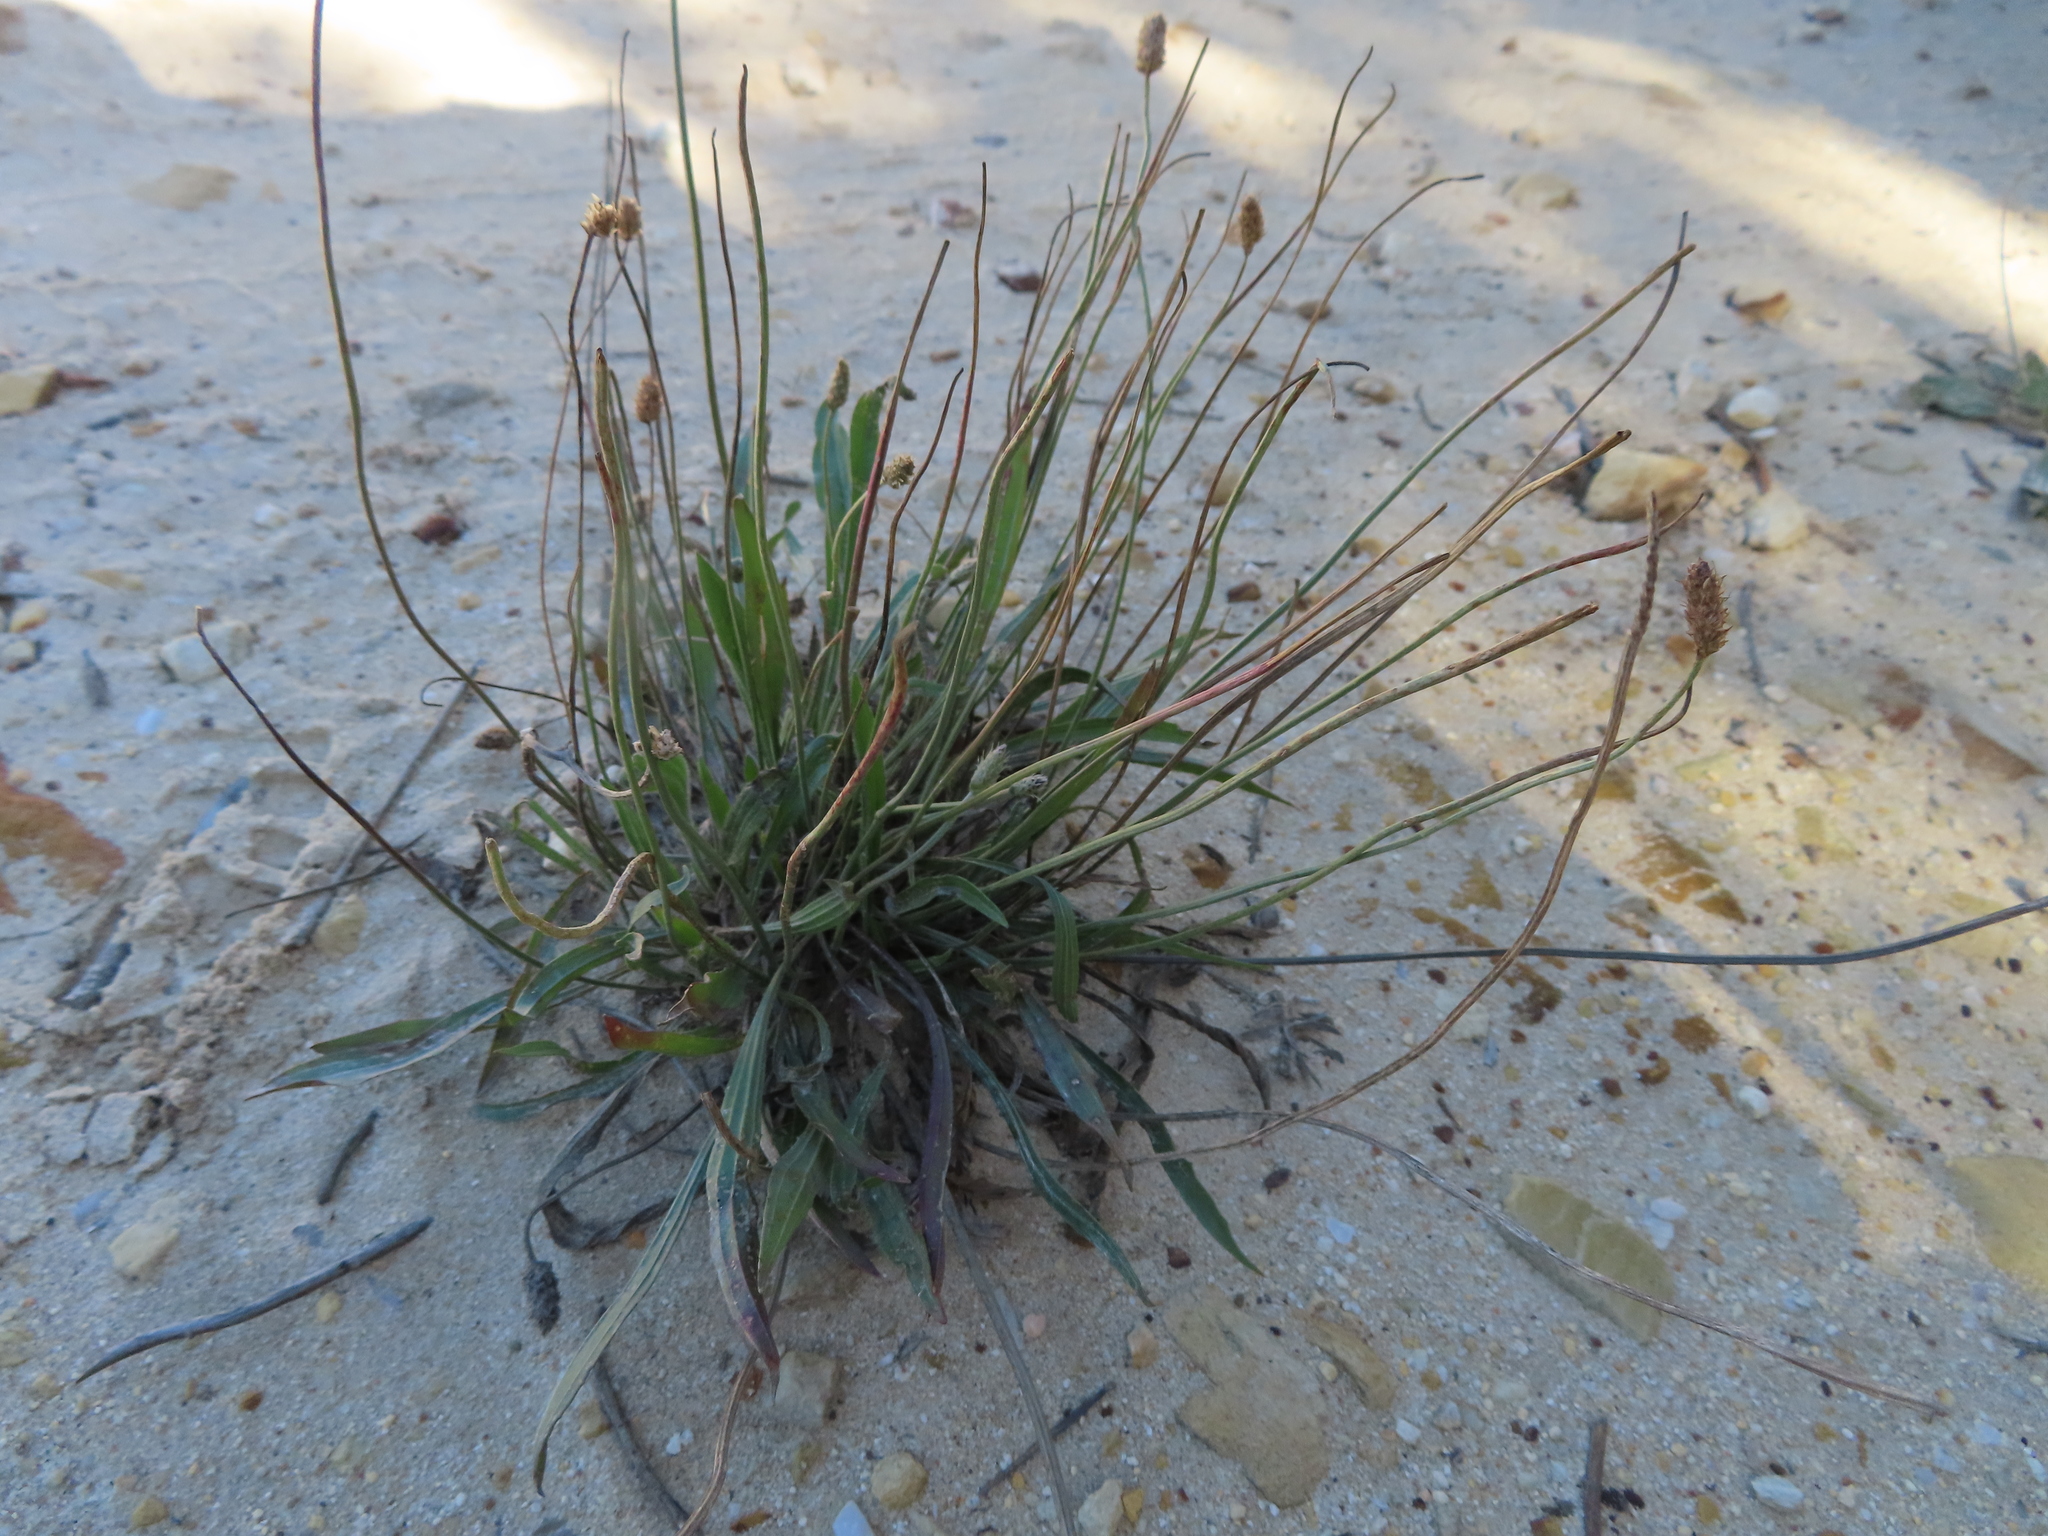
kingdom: Plantae
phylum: Tracheophyta
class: Magnoliopsida
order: Lamiales
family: Plantaginaceae
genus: Plantago
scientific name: Plantago lanceolata
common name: Ribwort plantain
